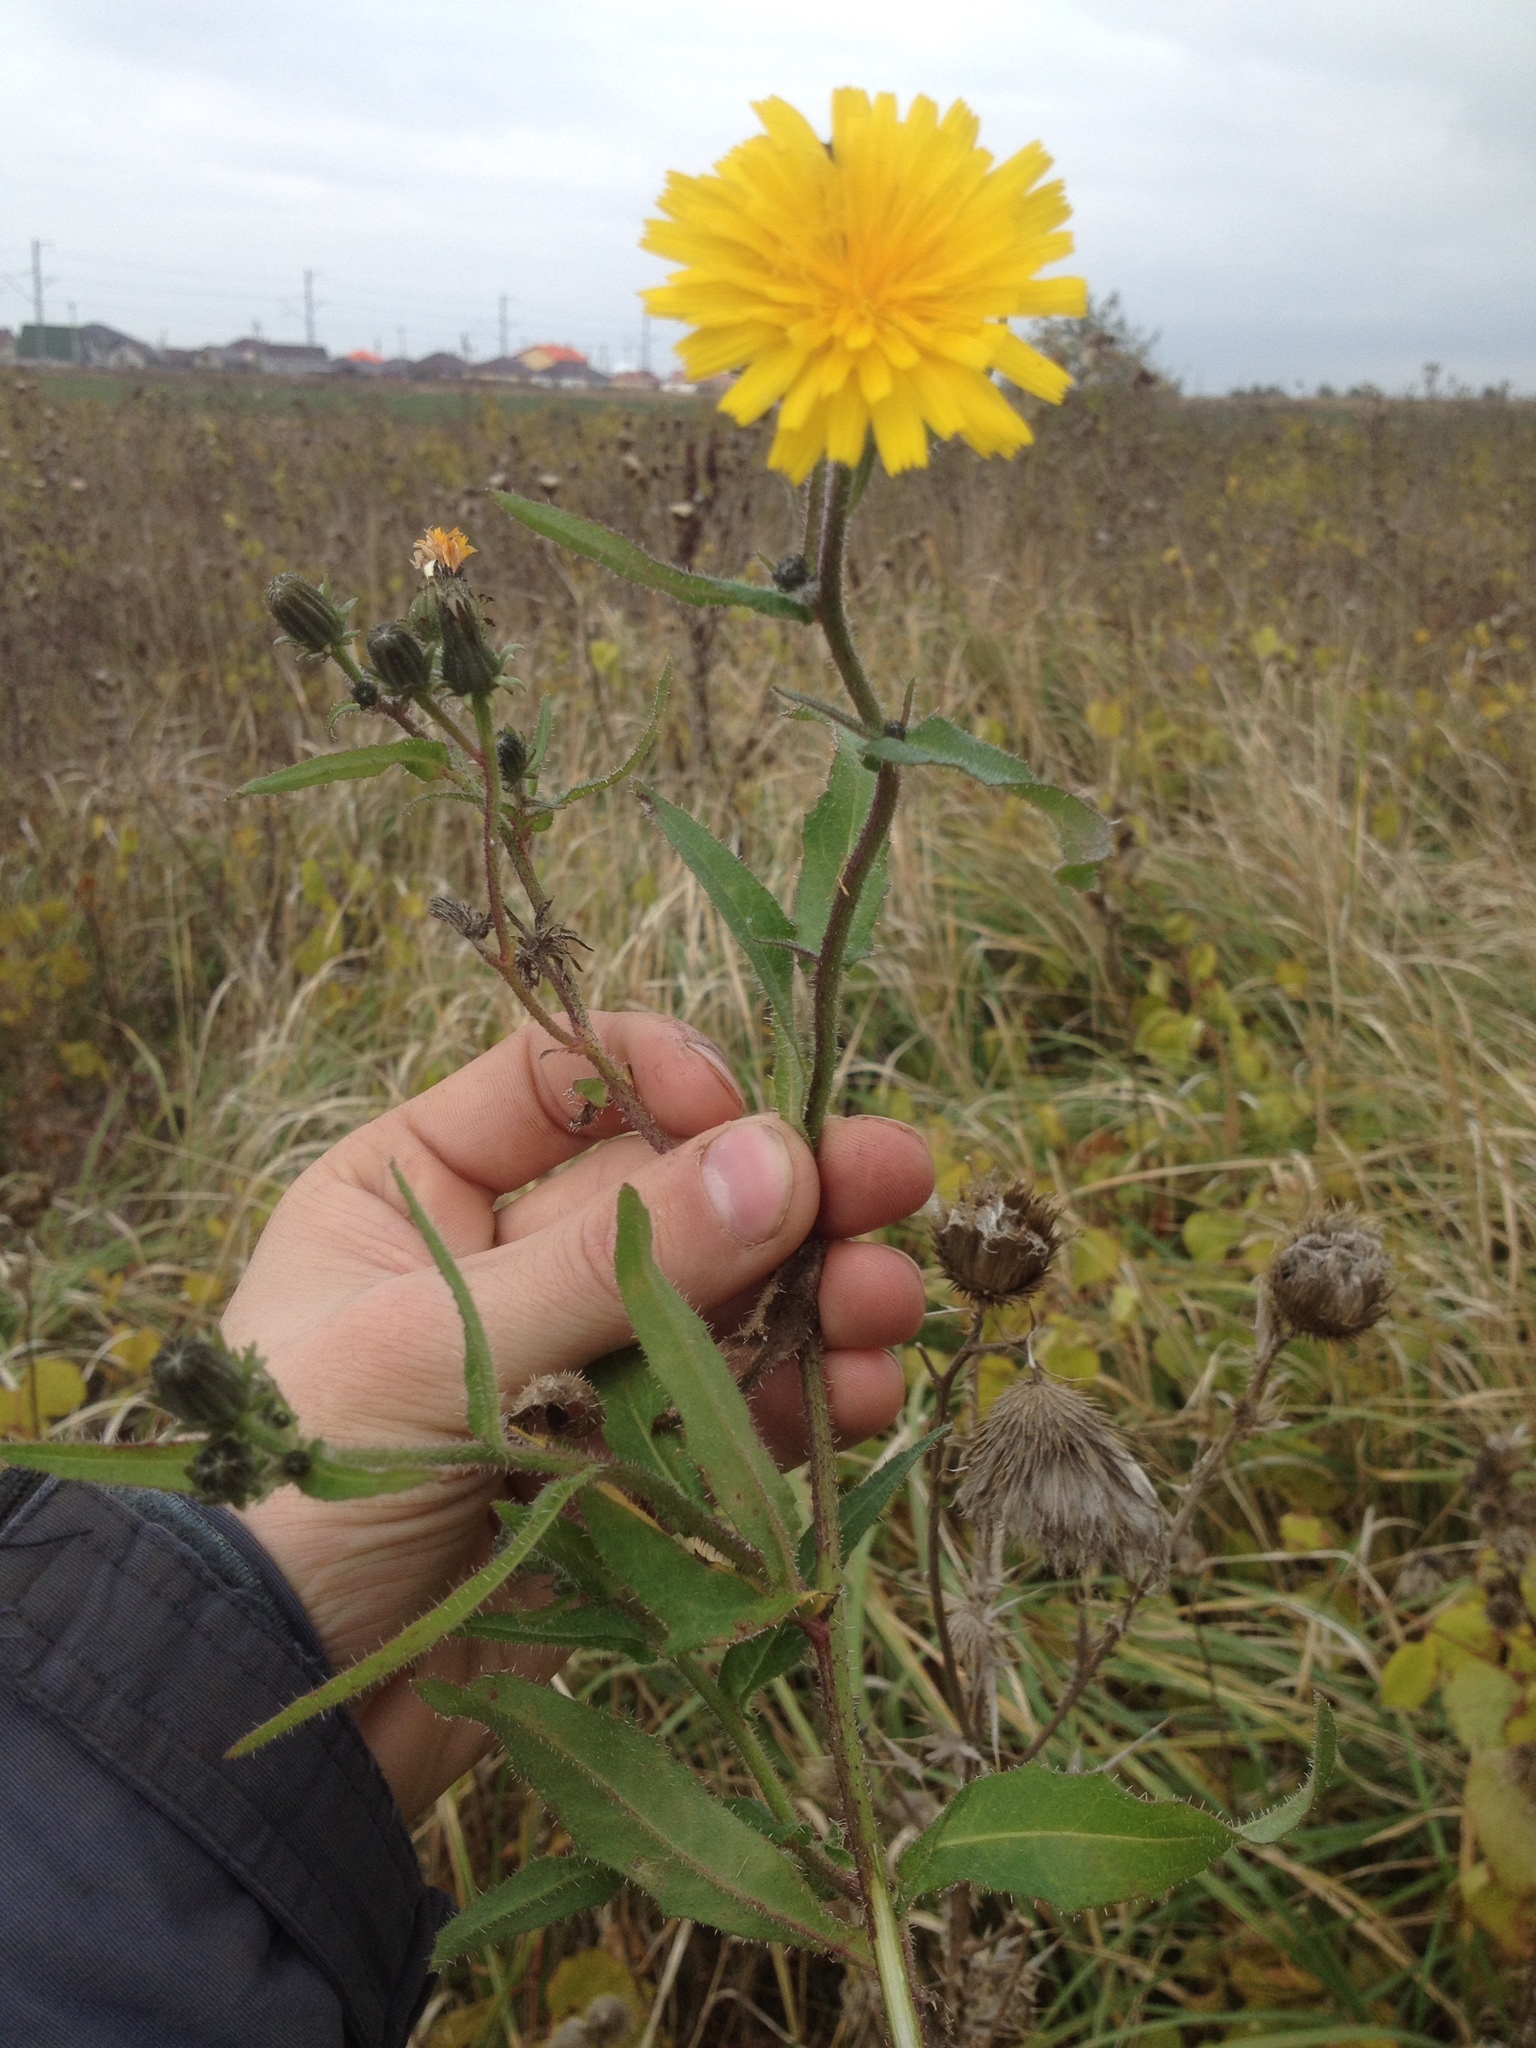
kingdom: Plantae
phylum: Tracheophyta
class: Magnoliopsida
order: Asterales
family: Asteraceae
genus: Picris
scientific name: Picris hieracioides
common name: Hawkweed oxtongue
